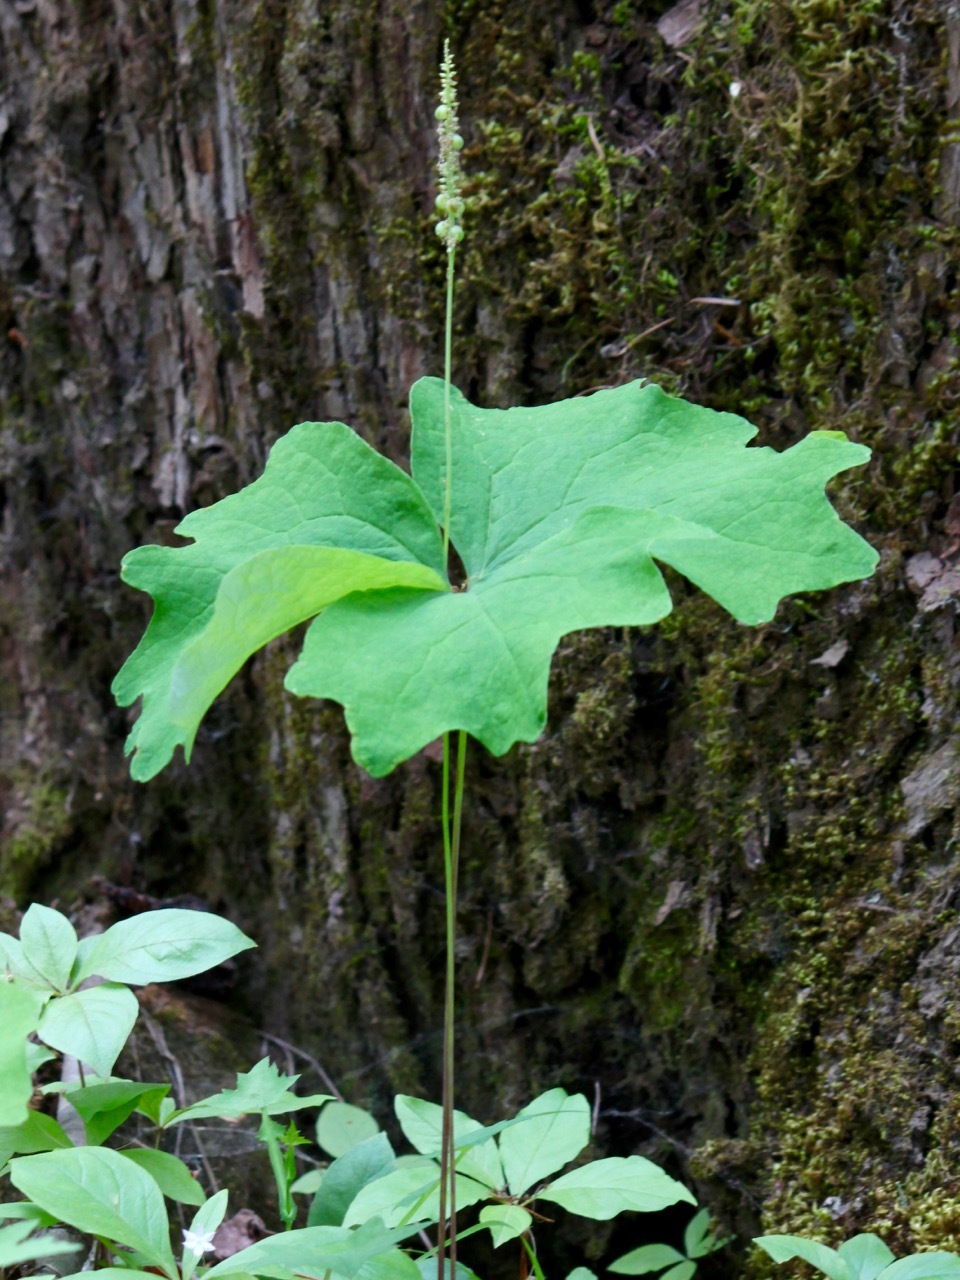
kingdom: Plantae
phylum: Tracheophyta
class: Magnoliopsida
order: Ranunculales
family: Berberidaceae
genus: Achlys
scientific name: Achlys triphylla
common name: Vanilla-leaf
